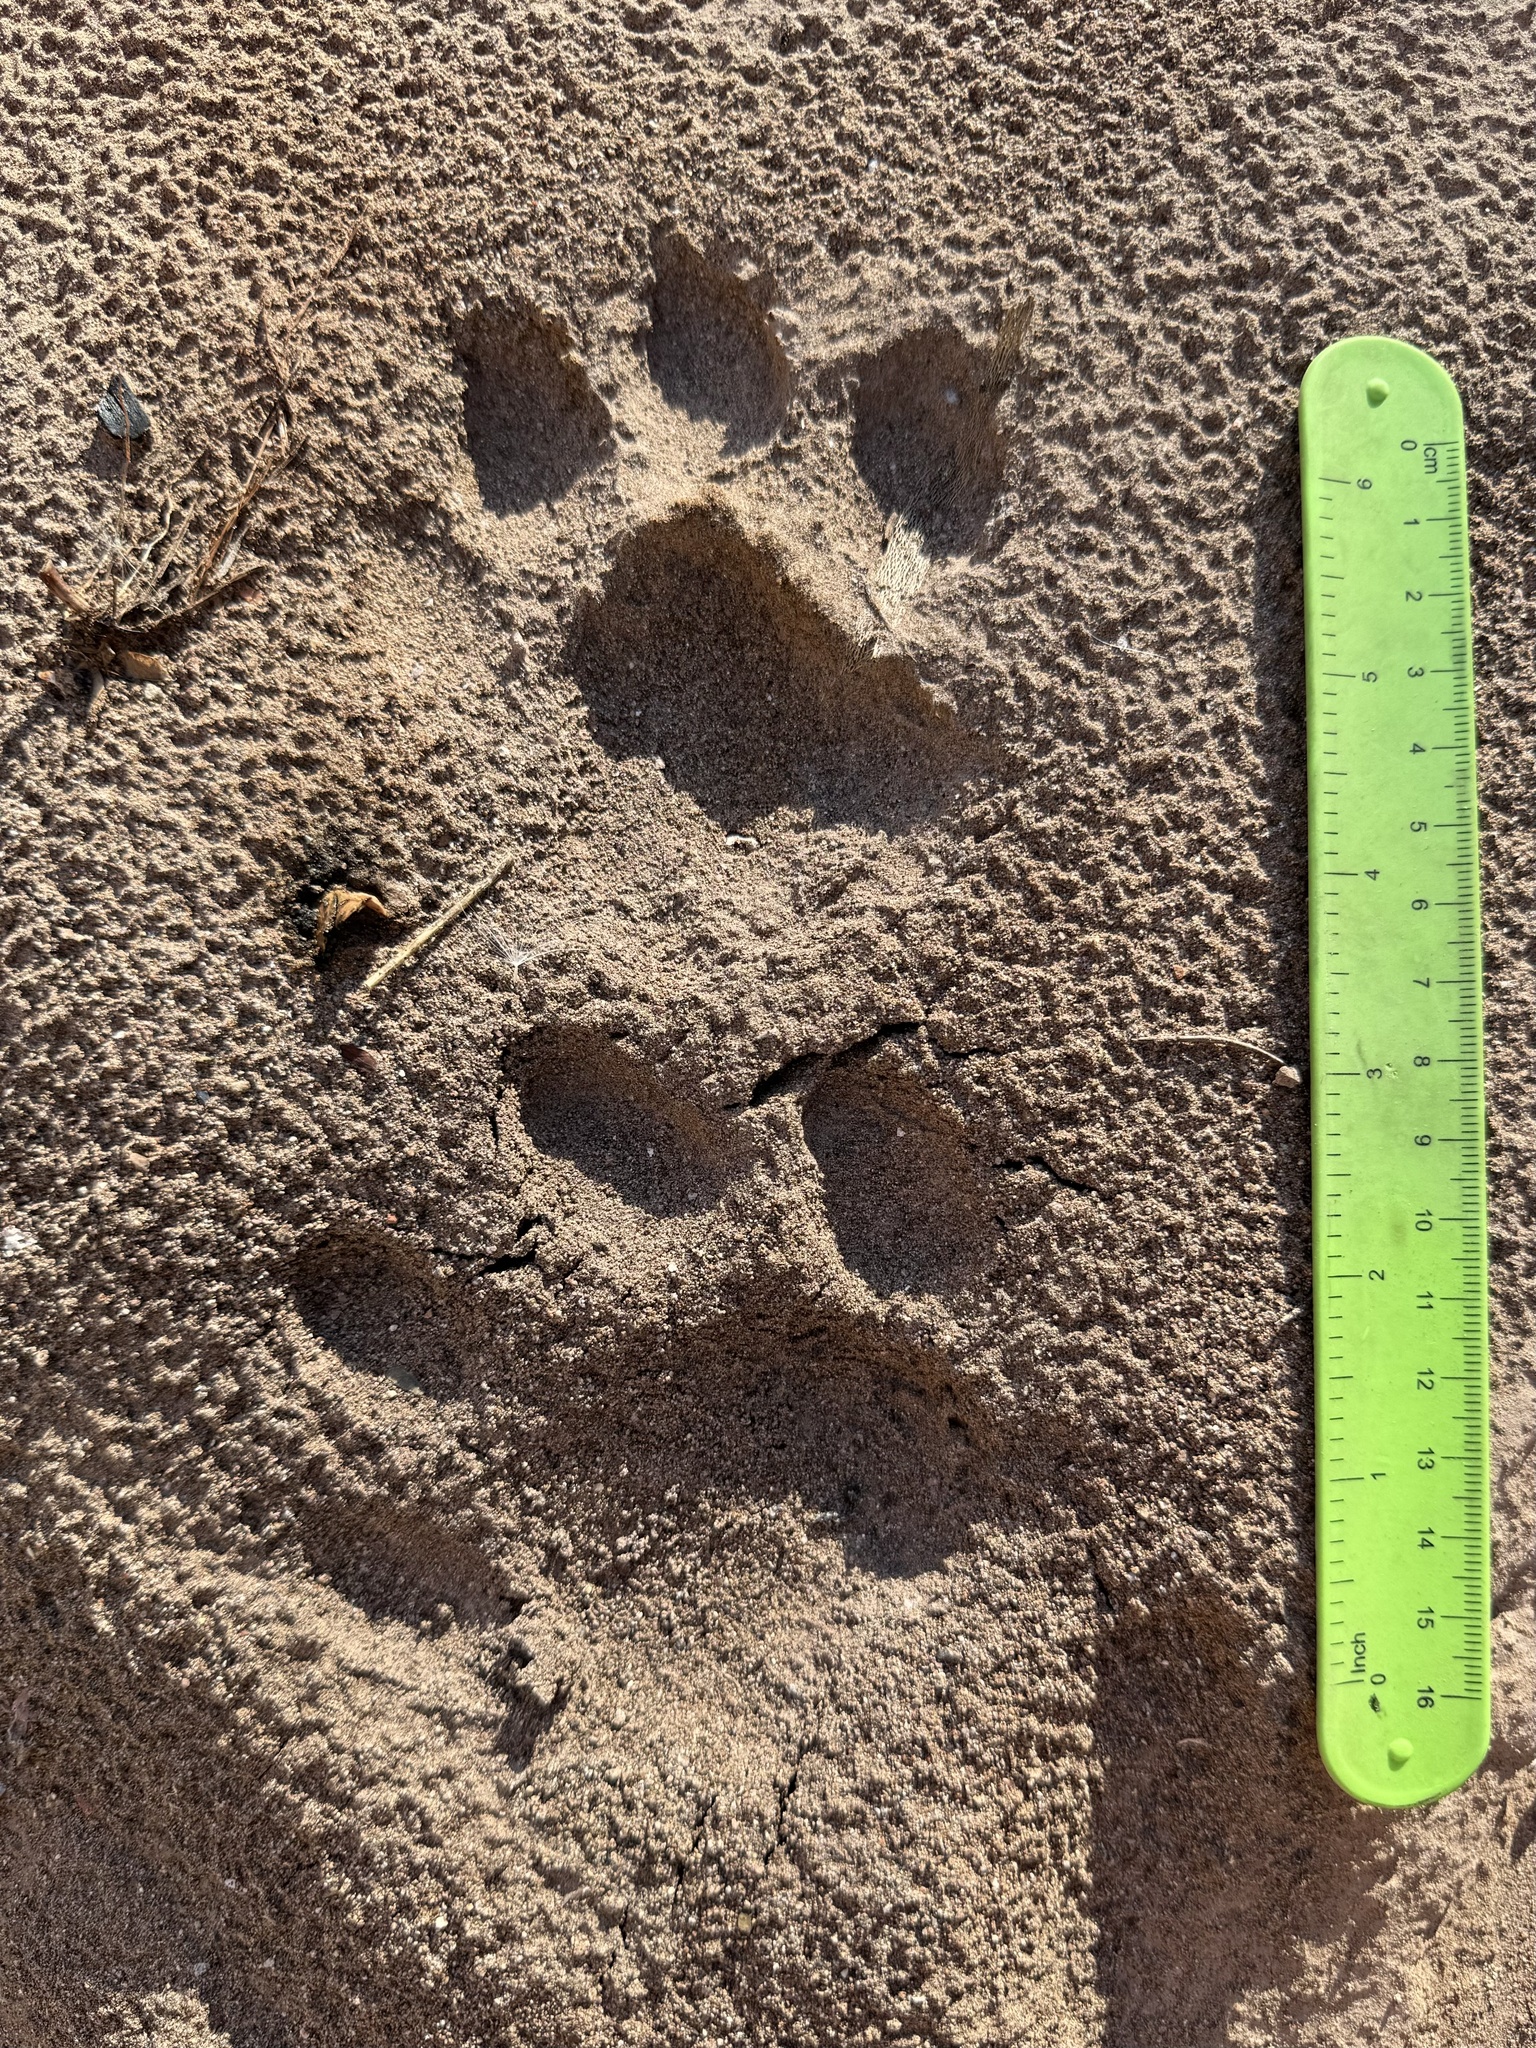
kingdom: Animalia
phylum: Chordata
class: Mammalia
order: Carnivora
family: Felidae
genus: Puma
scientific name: Puma concolor
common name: Puma
